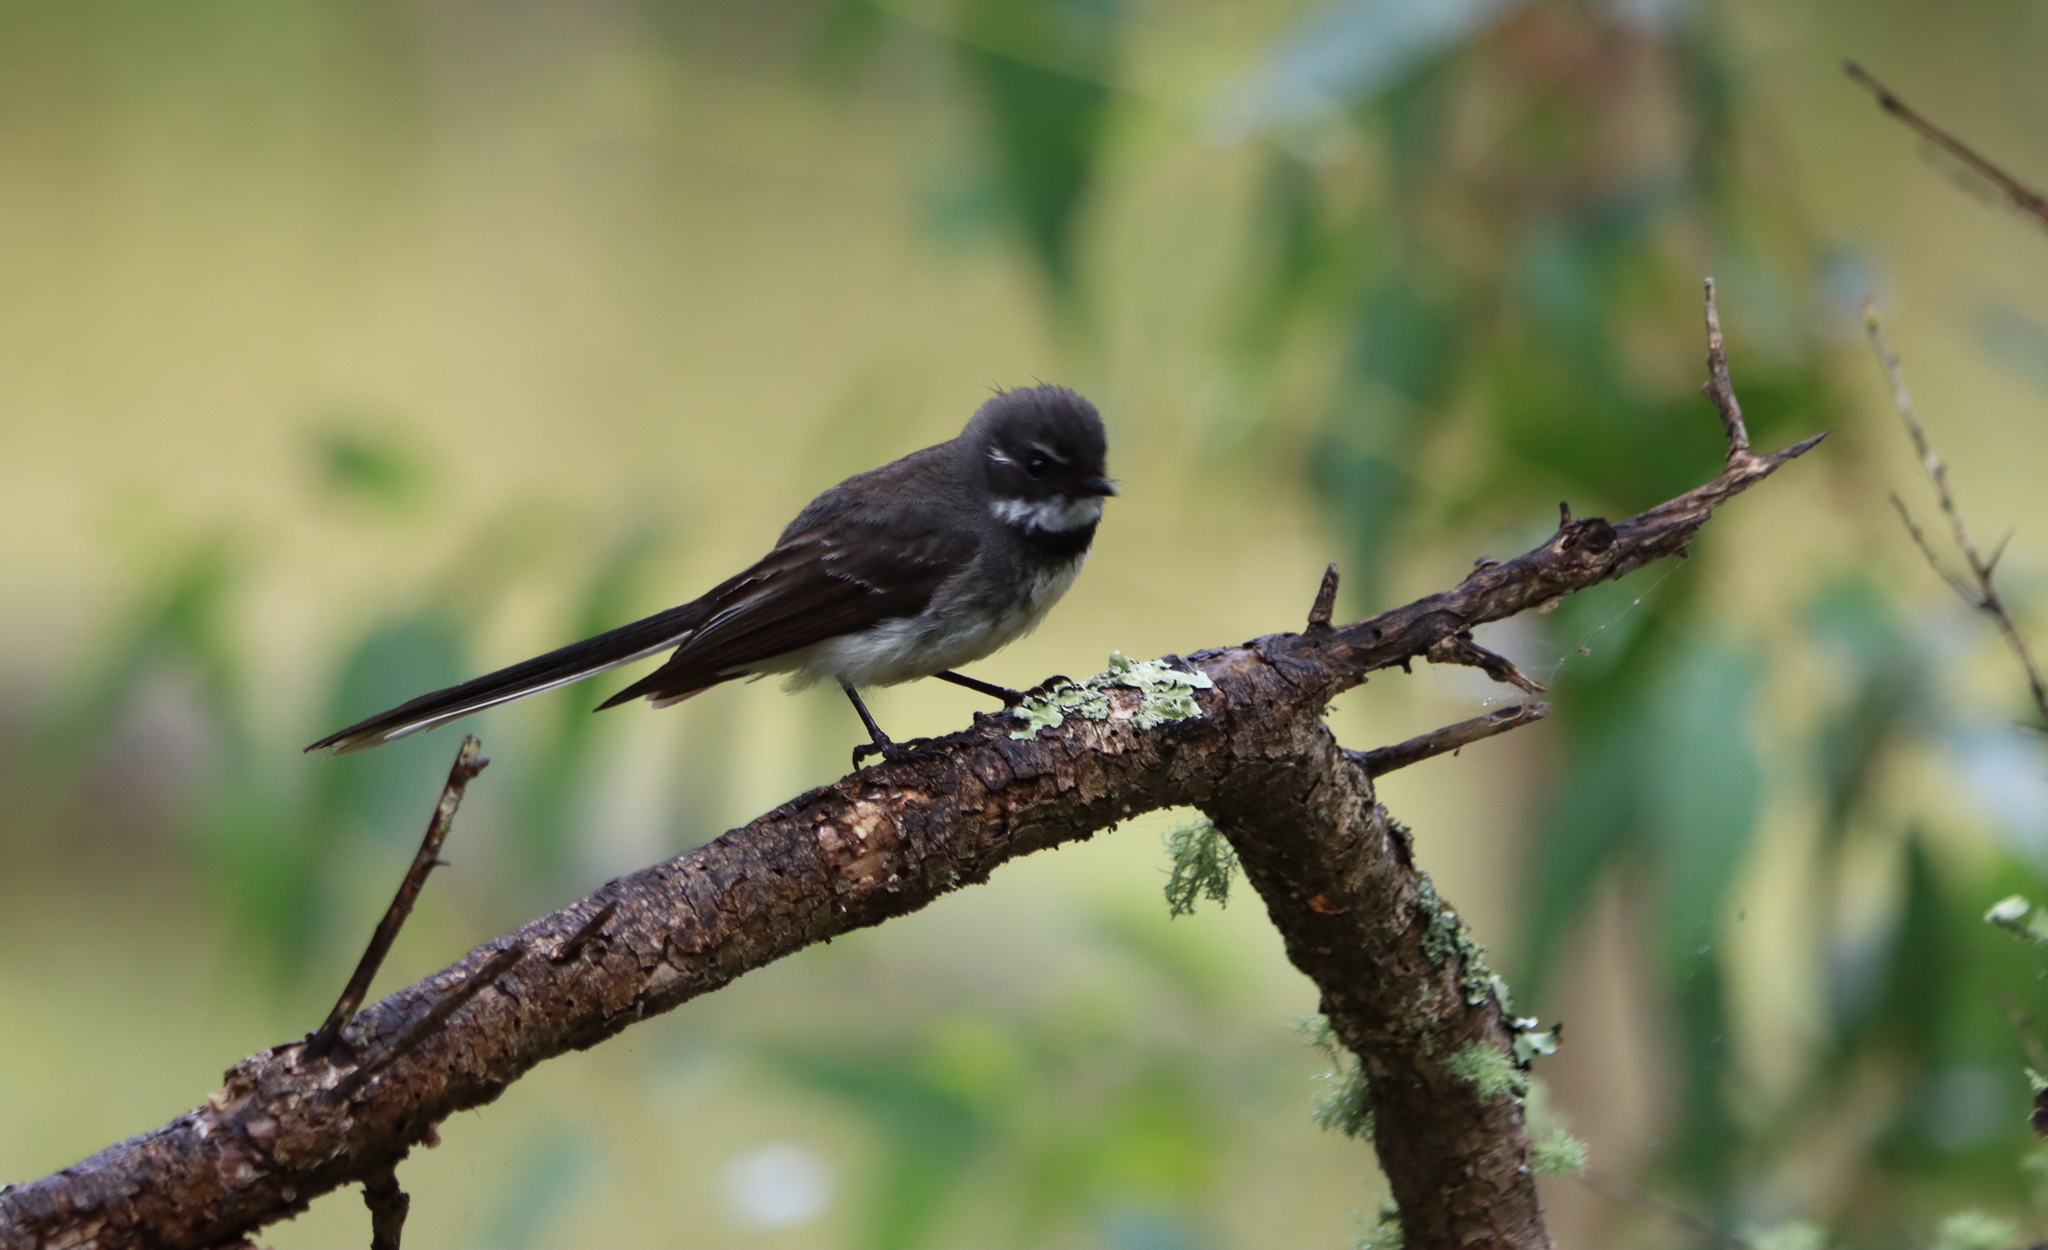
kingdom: Animalia
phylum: Chordata
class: Aves
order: Passeriformes
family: Rhipiduridae
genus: Rhipidura
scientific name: Rhipidura albiscapa
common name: Grey fantail
